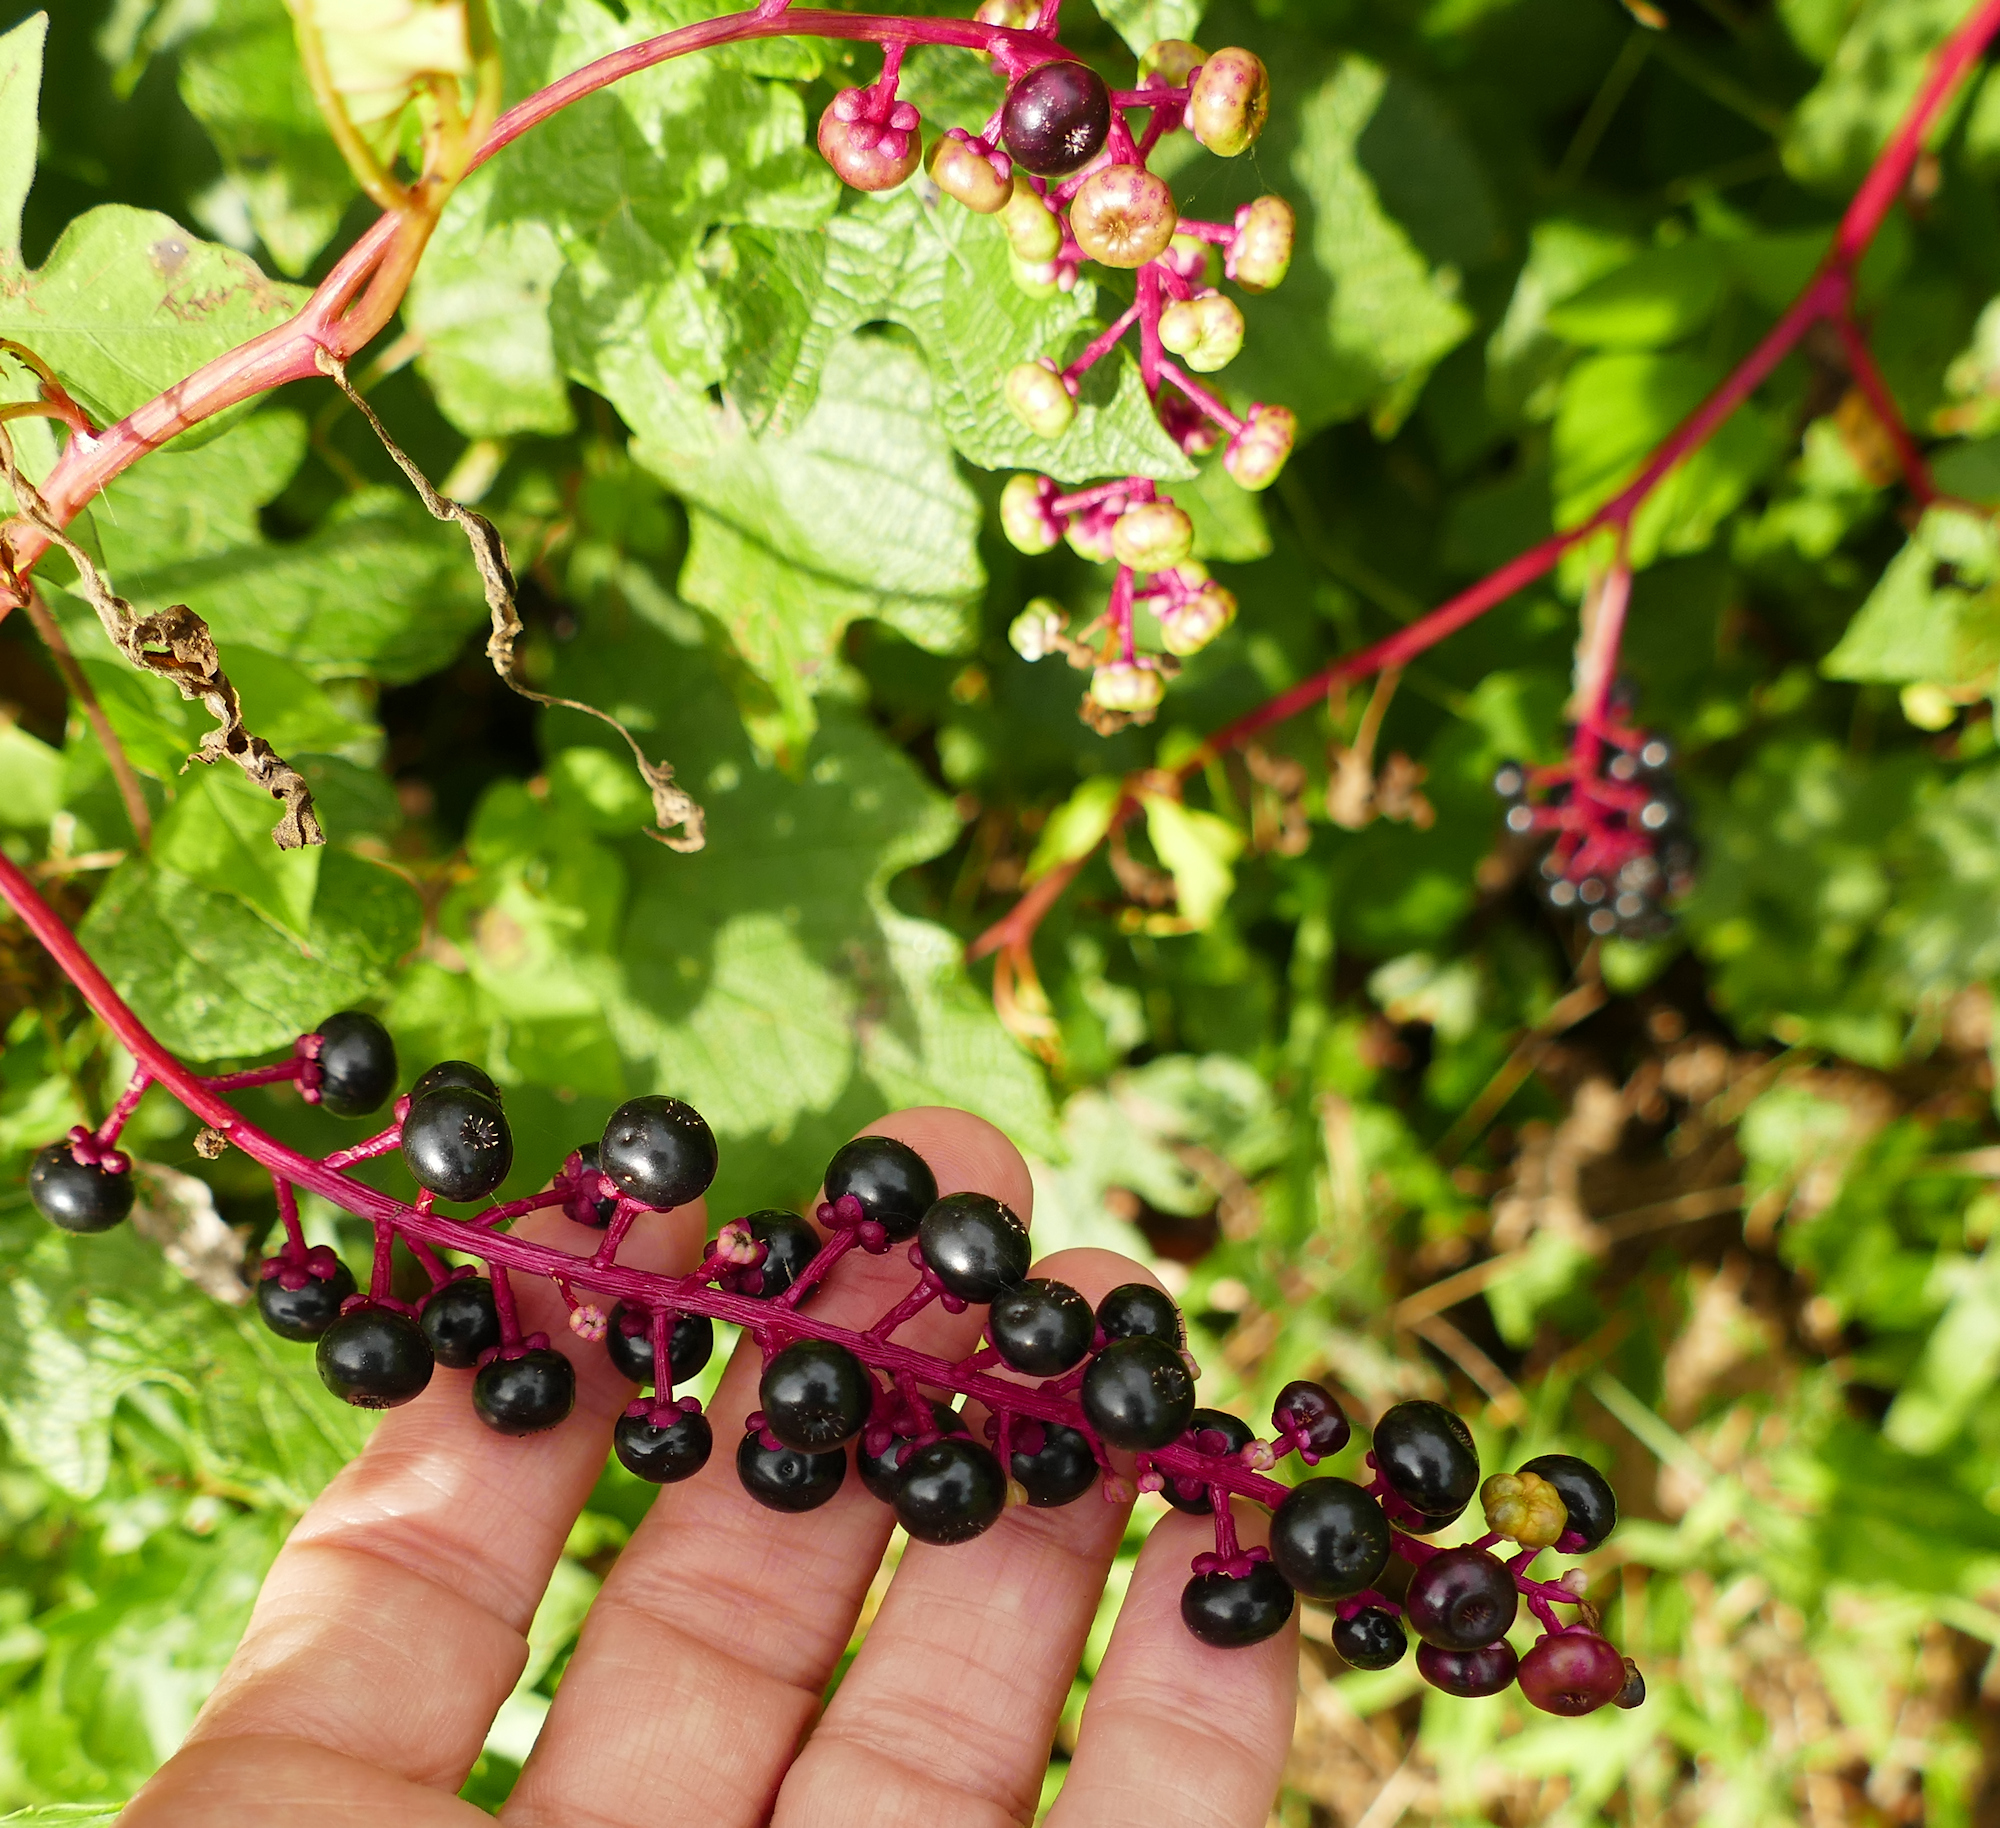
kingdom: Plantae
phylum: Tracheophyta
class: Magnoliopsida
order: Caryophyllales
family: Phytolaccaceae
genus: Phytolacca
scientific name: Phytolacca americana
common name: American pokeweed
